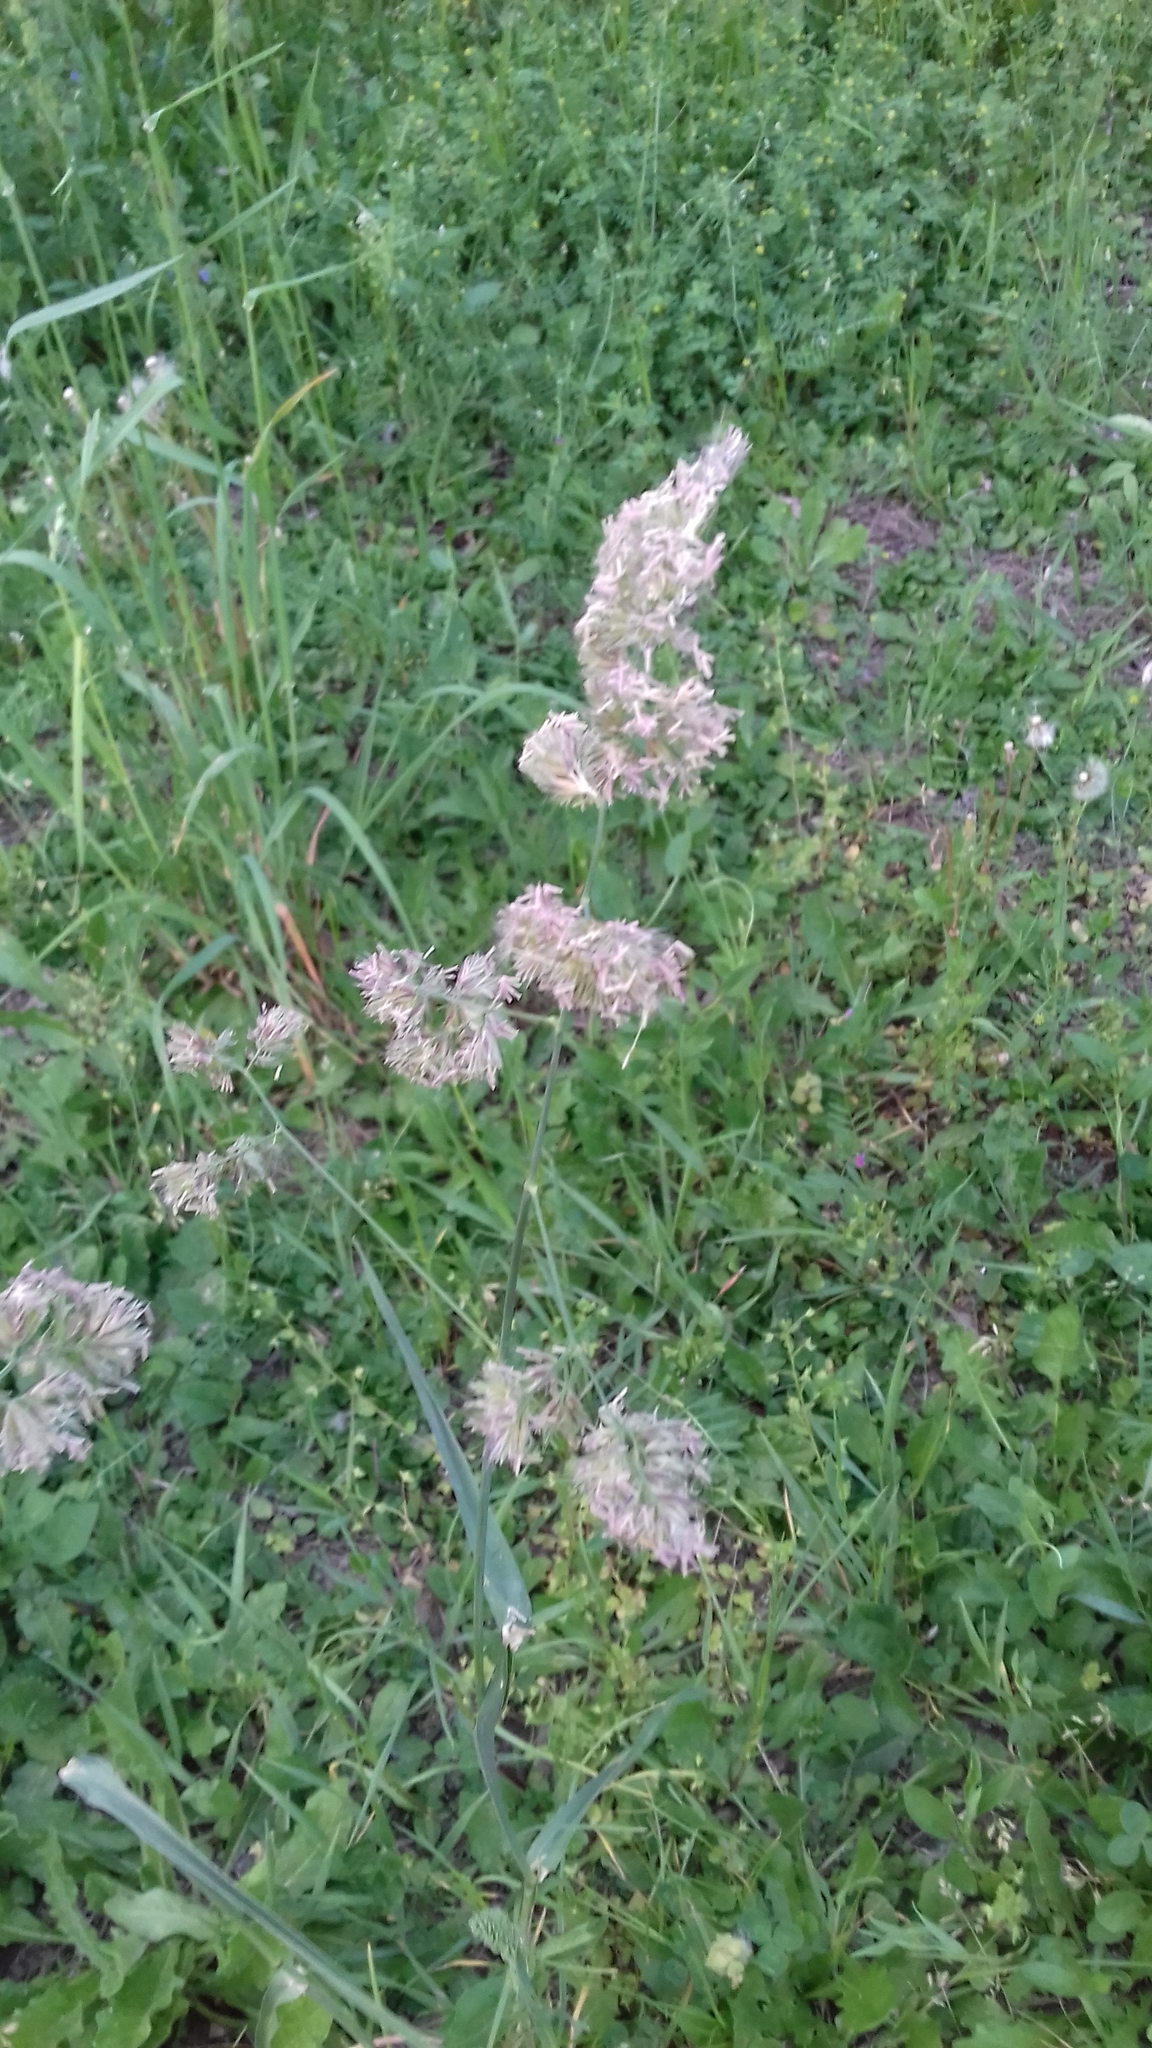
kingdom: Plantae
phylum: Tracheophyta
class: Liliopsida
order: Poales
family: Poaceae
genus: Dactylis
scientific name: Dactylis glomerata
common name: Orchardgrass
